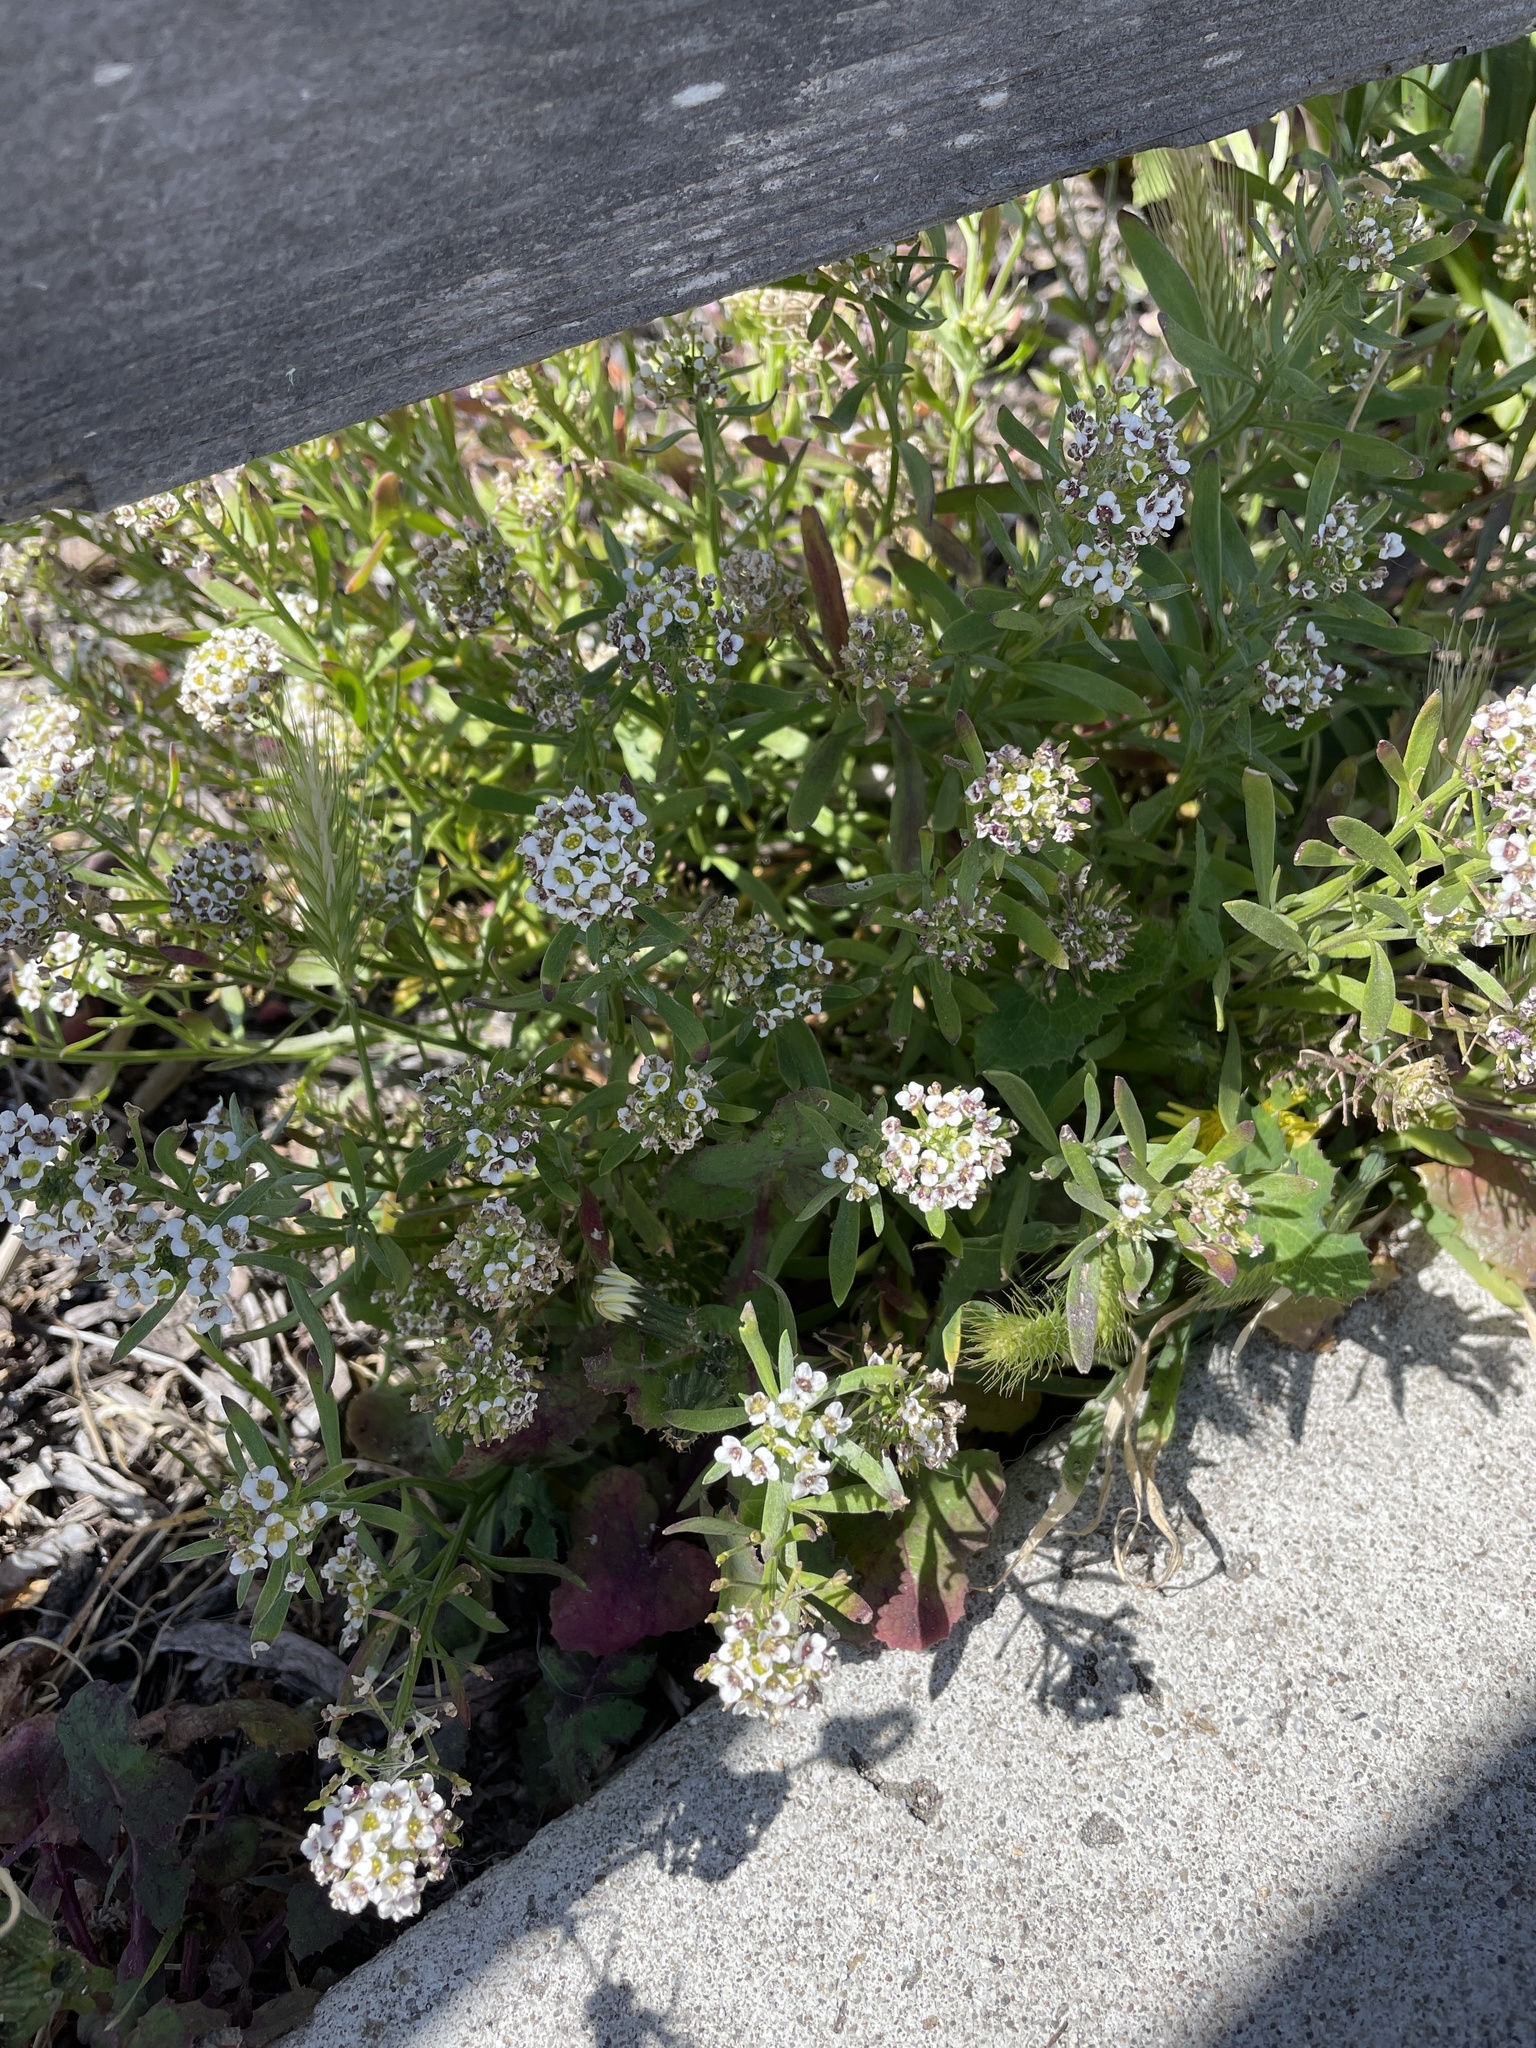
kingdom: Plantae
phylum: Tracheophyta
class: Magnoliopsida
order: Brassicales
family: Brassicaceae
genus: Lobularia
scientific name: Lobularia maritima
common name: Sweet alison
